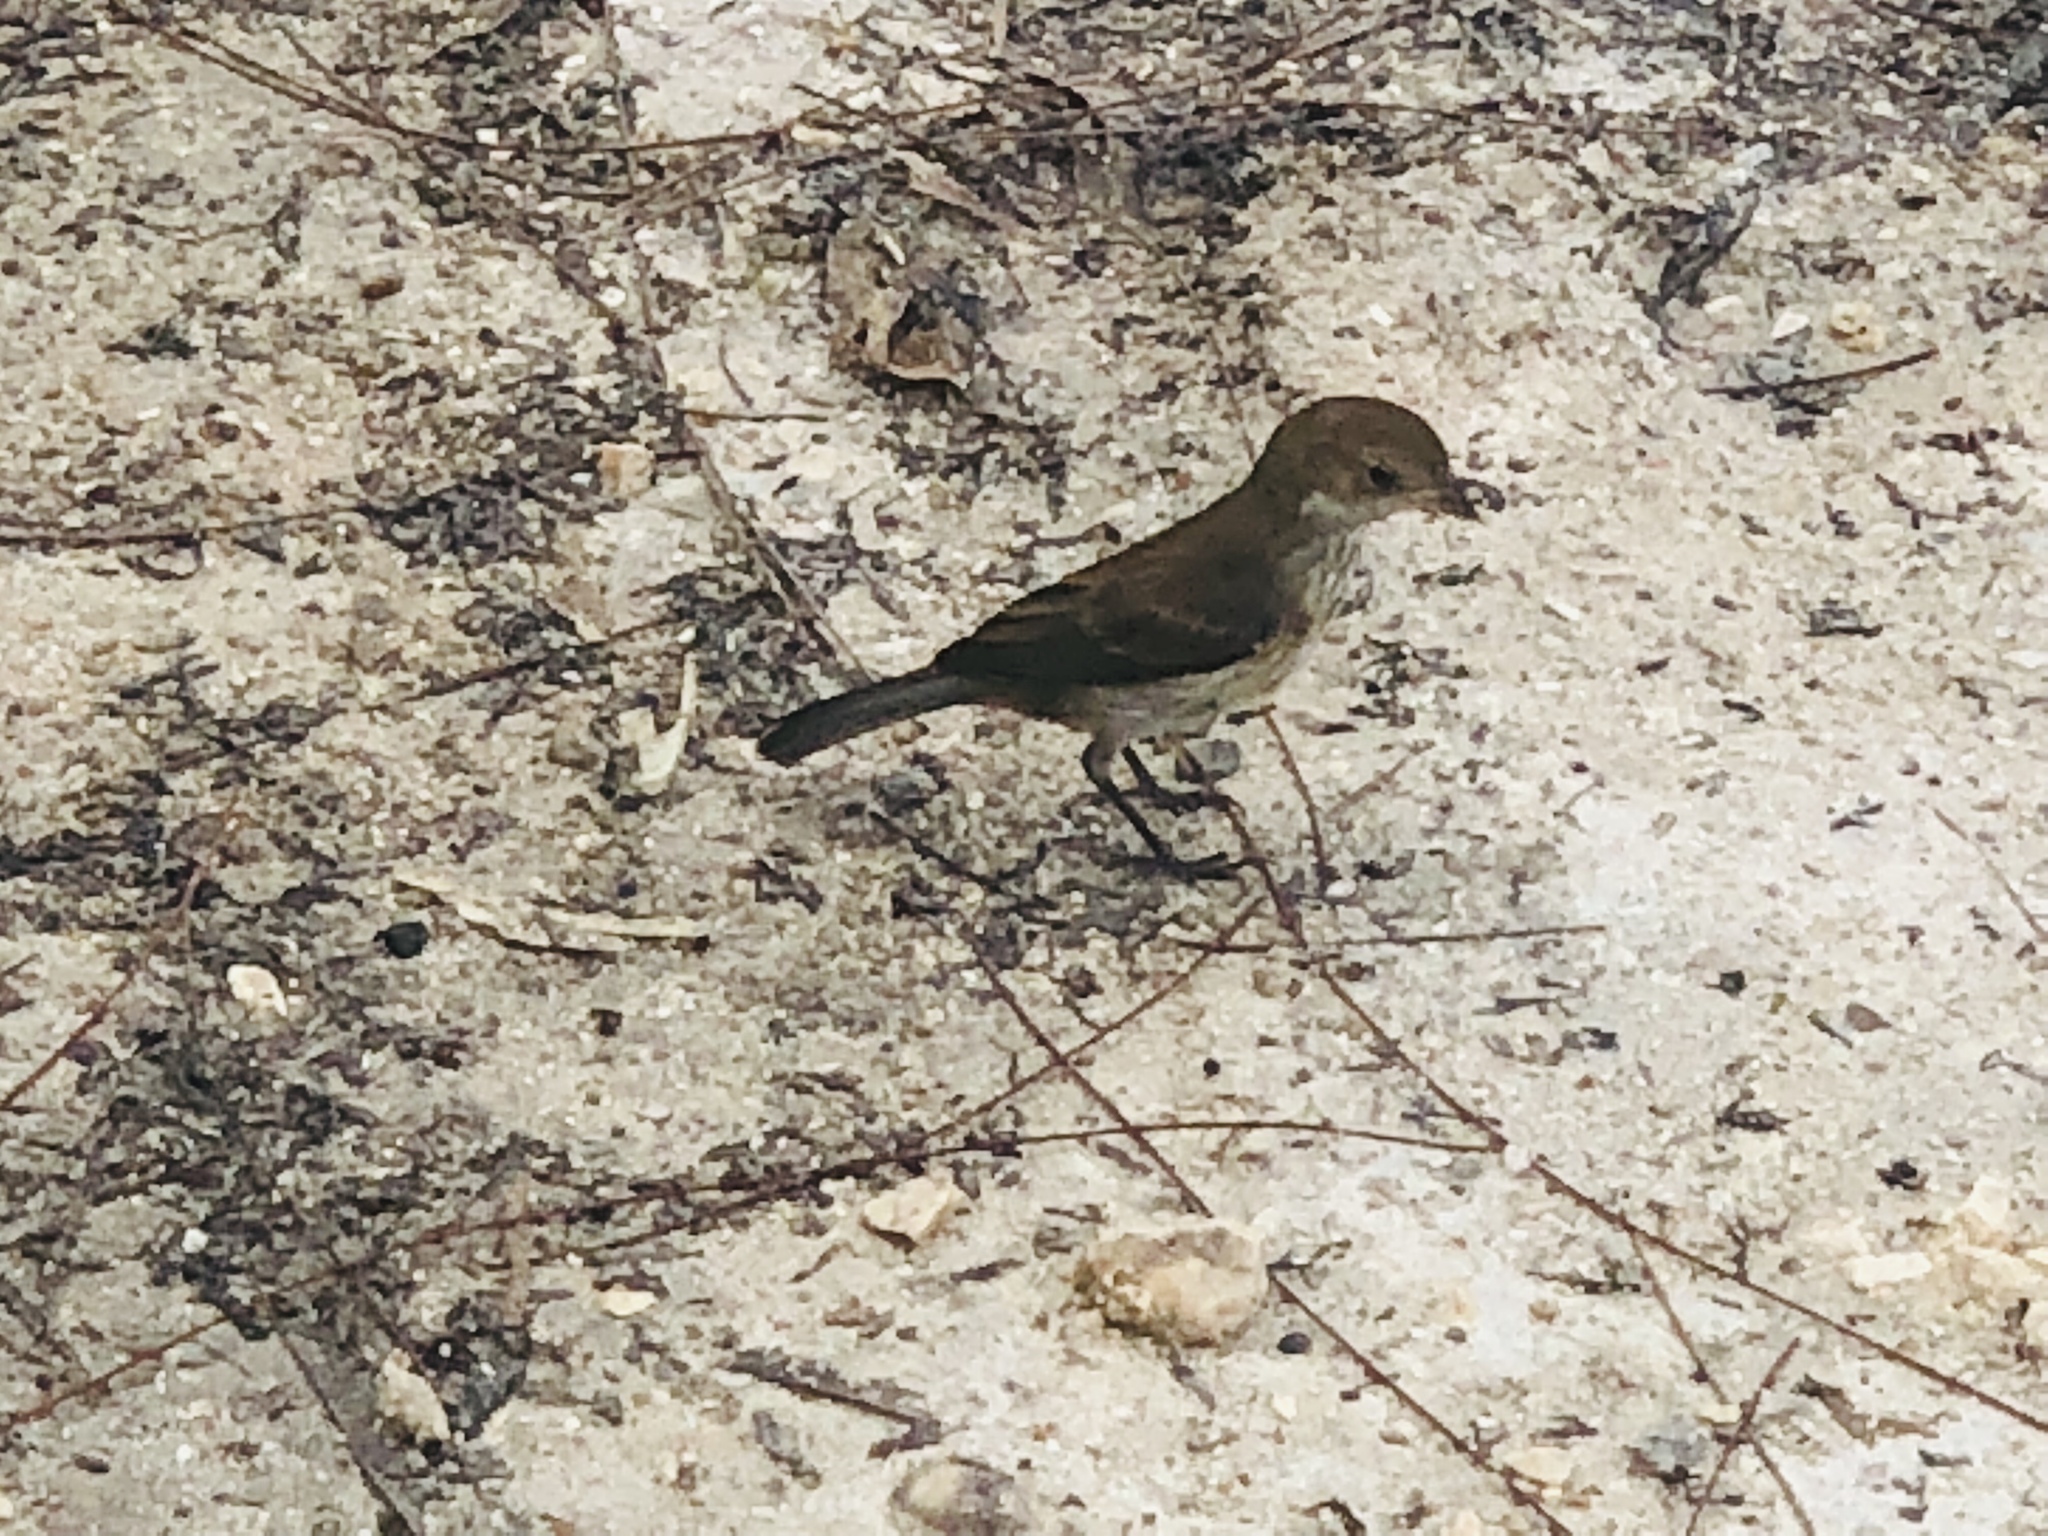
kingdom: Animalia
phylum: Chordata
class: Aves
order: Passeriformes
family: Cardinalidae
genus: Passerina
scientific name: Passerina cyanea
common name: Indigo bunting
